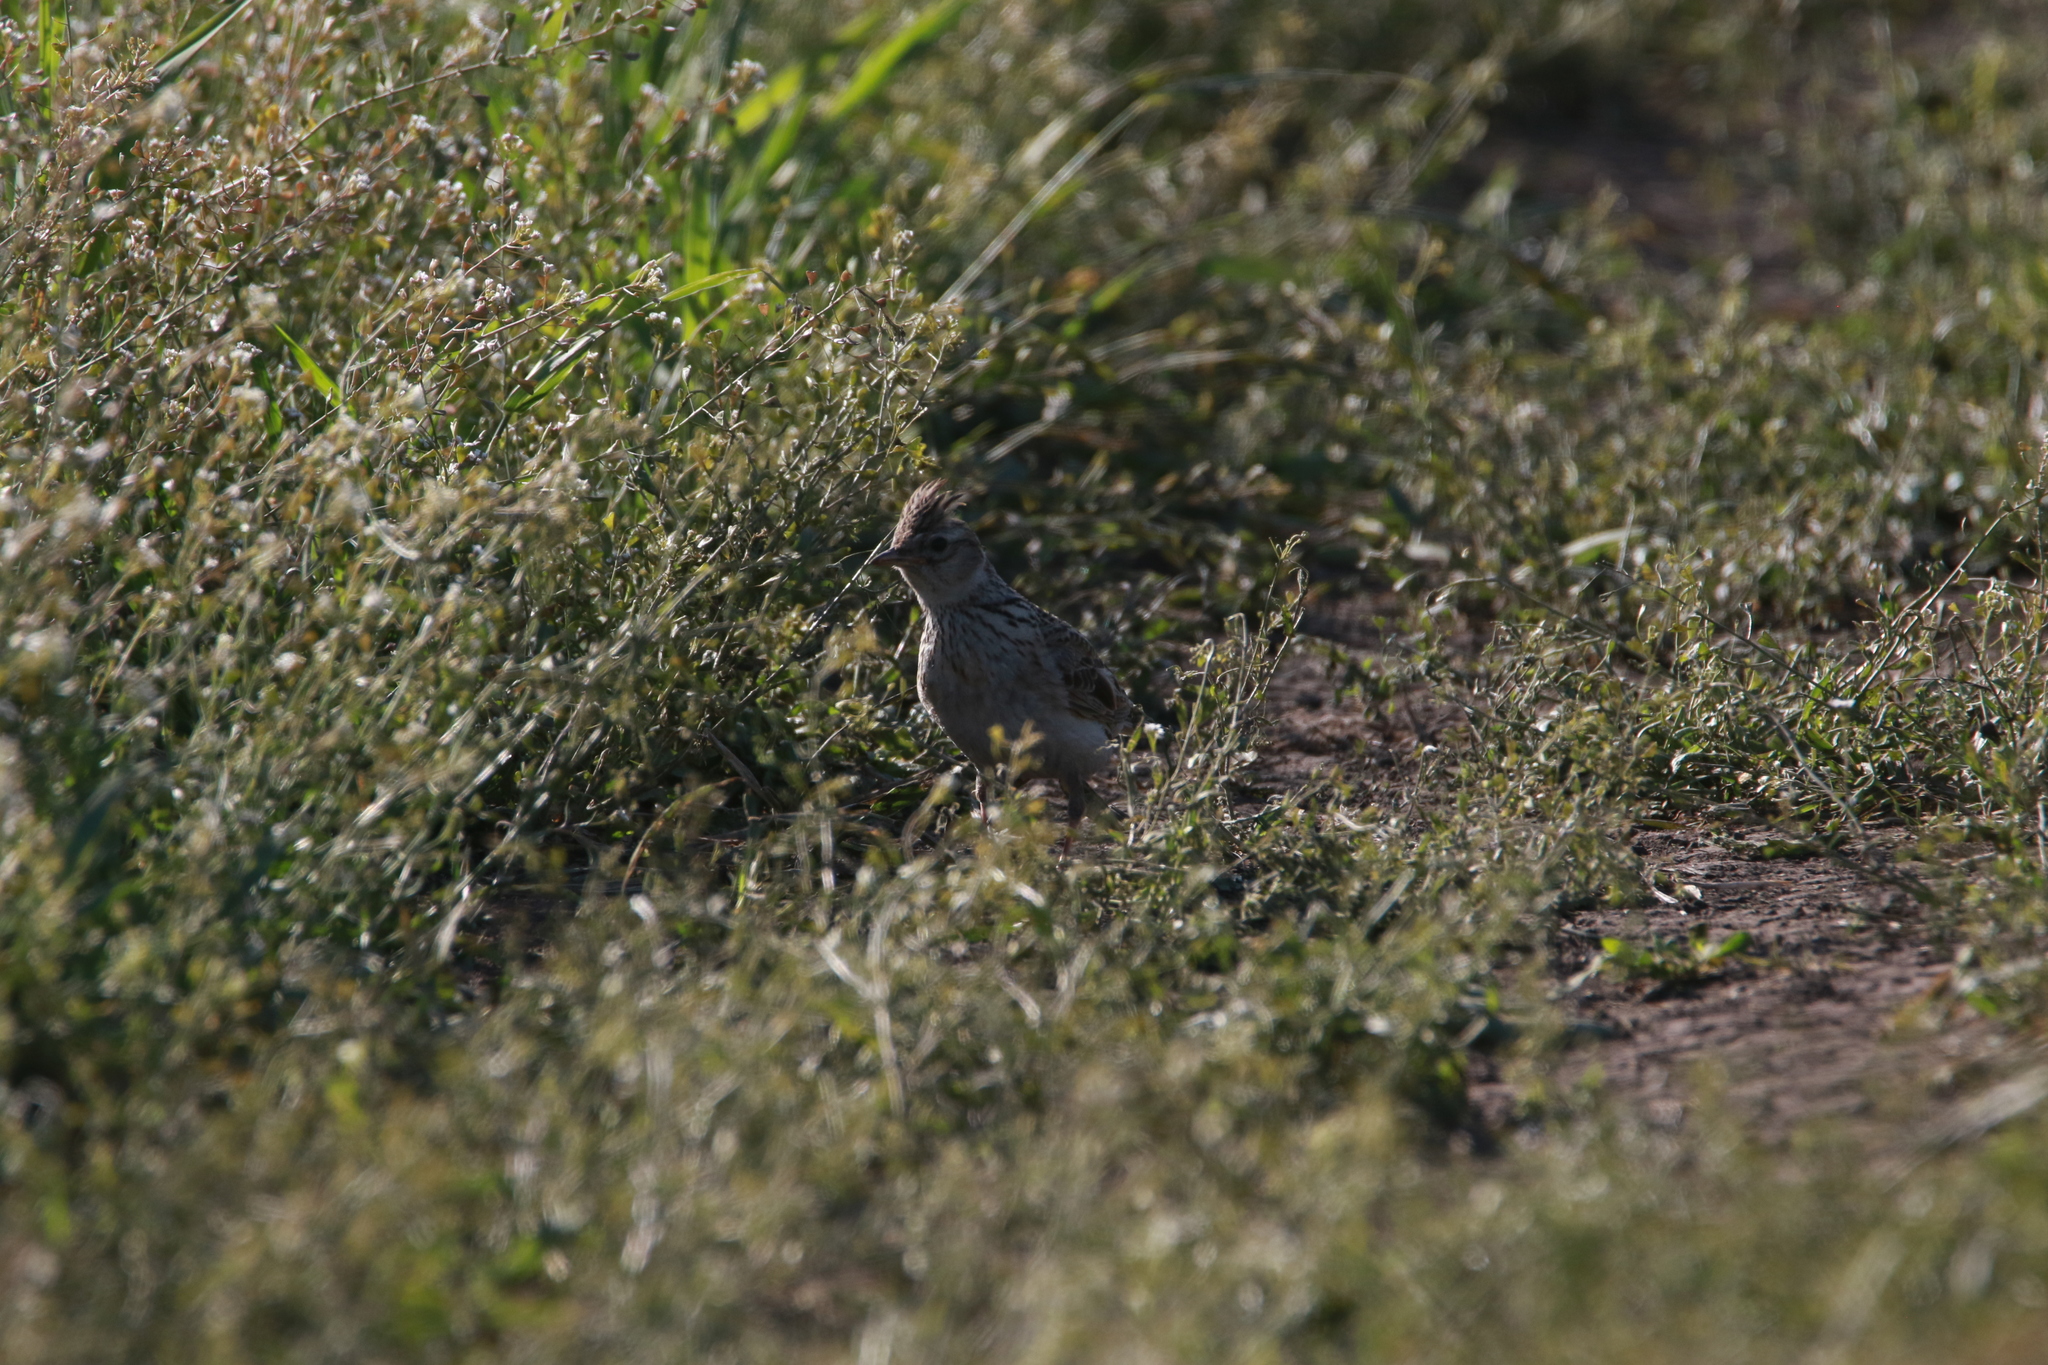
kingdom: Animalia
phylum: Chordata
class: Aves
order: Passeriformes
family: Alaudidae
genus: Alauda
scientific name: Alauda arvensis
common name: Eurasian skylark
